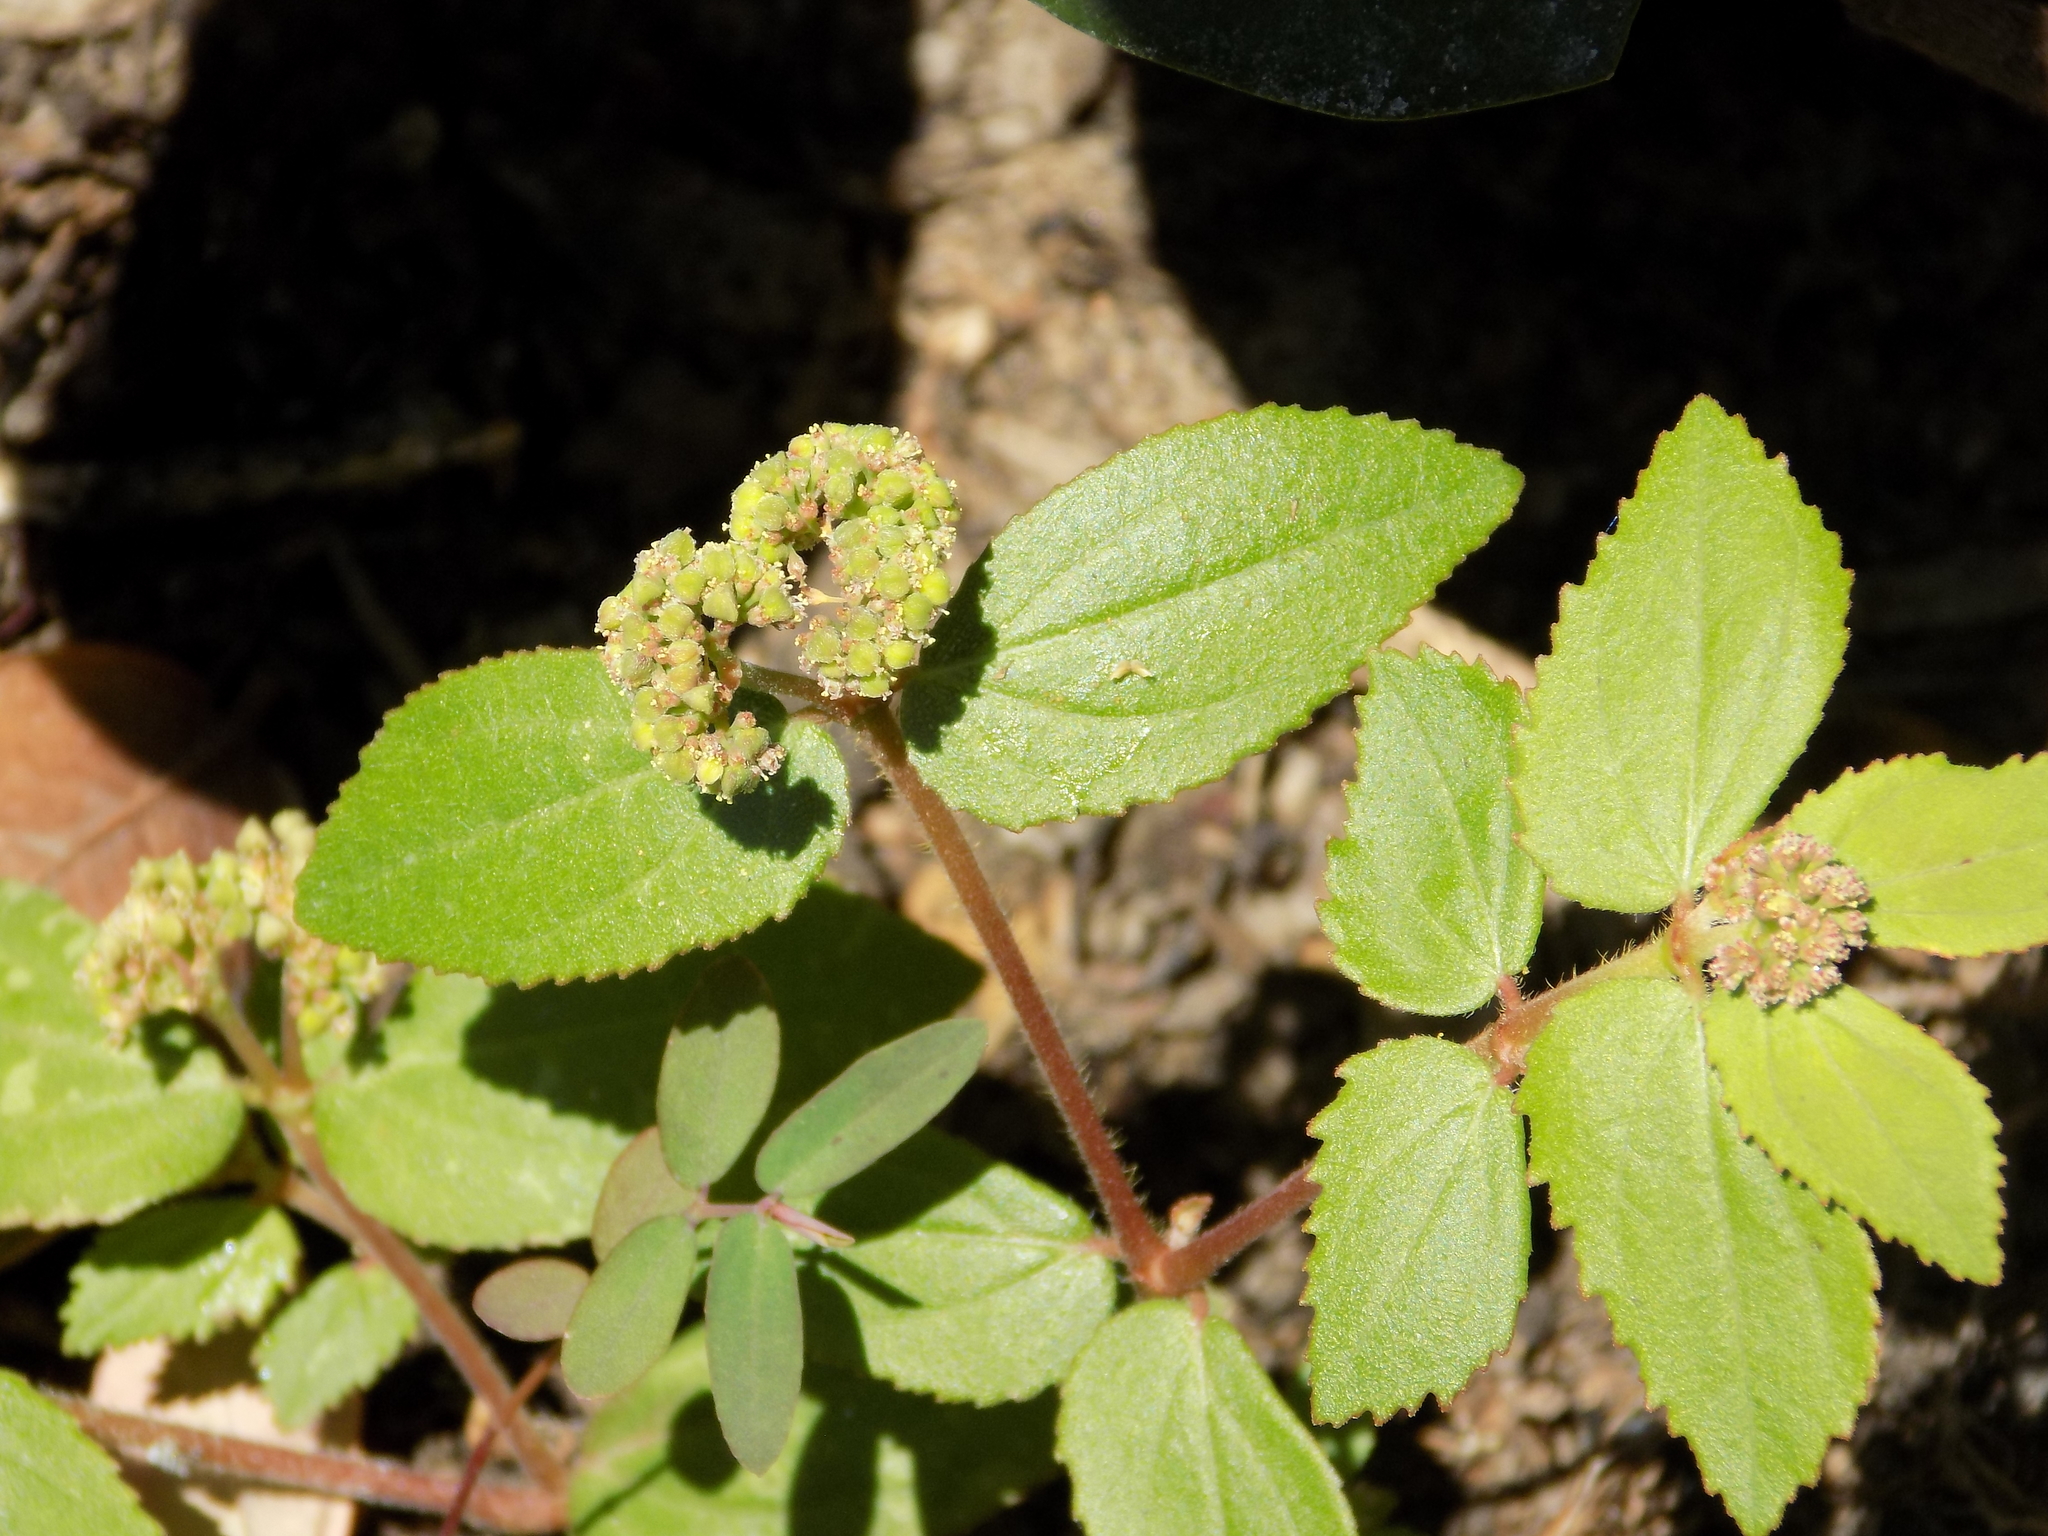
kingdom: Plantae
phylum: Tracheophyta
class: Magnoliopsida
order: Malpighiales
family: Euphorbiaceae
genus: Euphorbia
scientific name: Euphorbia ophthalmica
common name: Florida hammock sandmat
